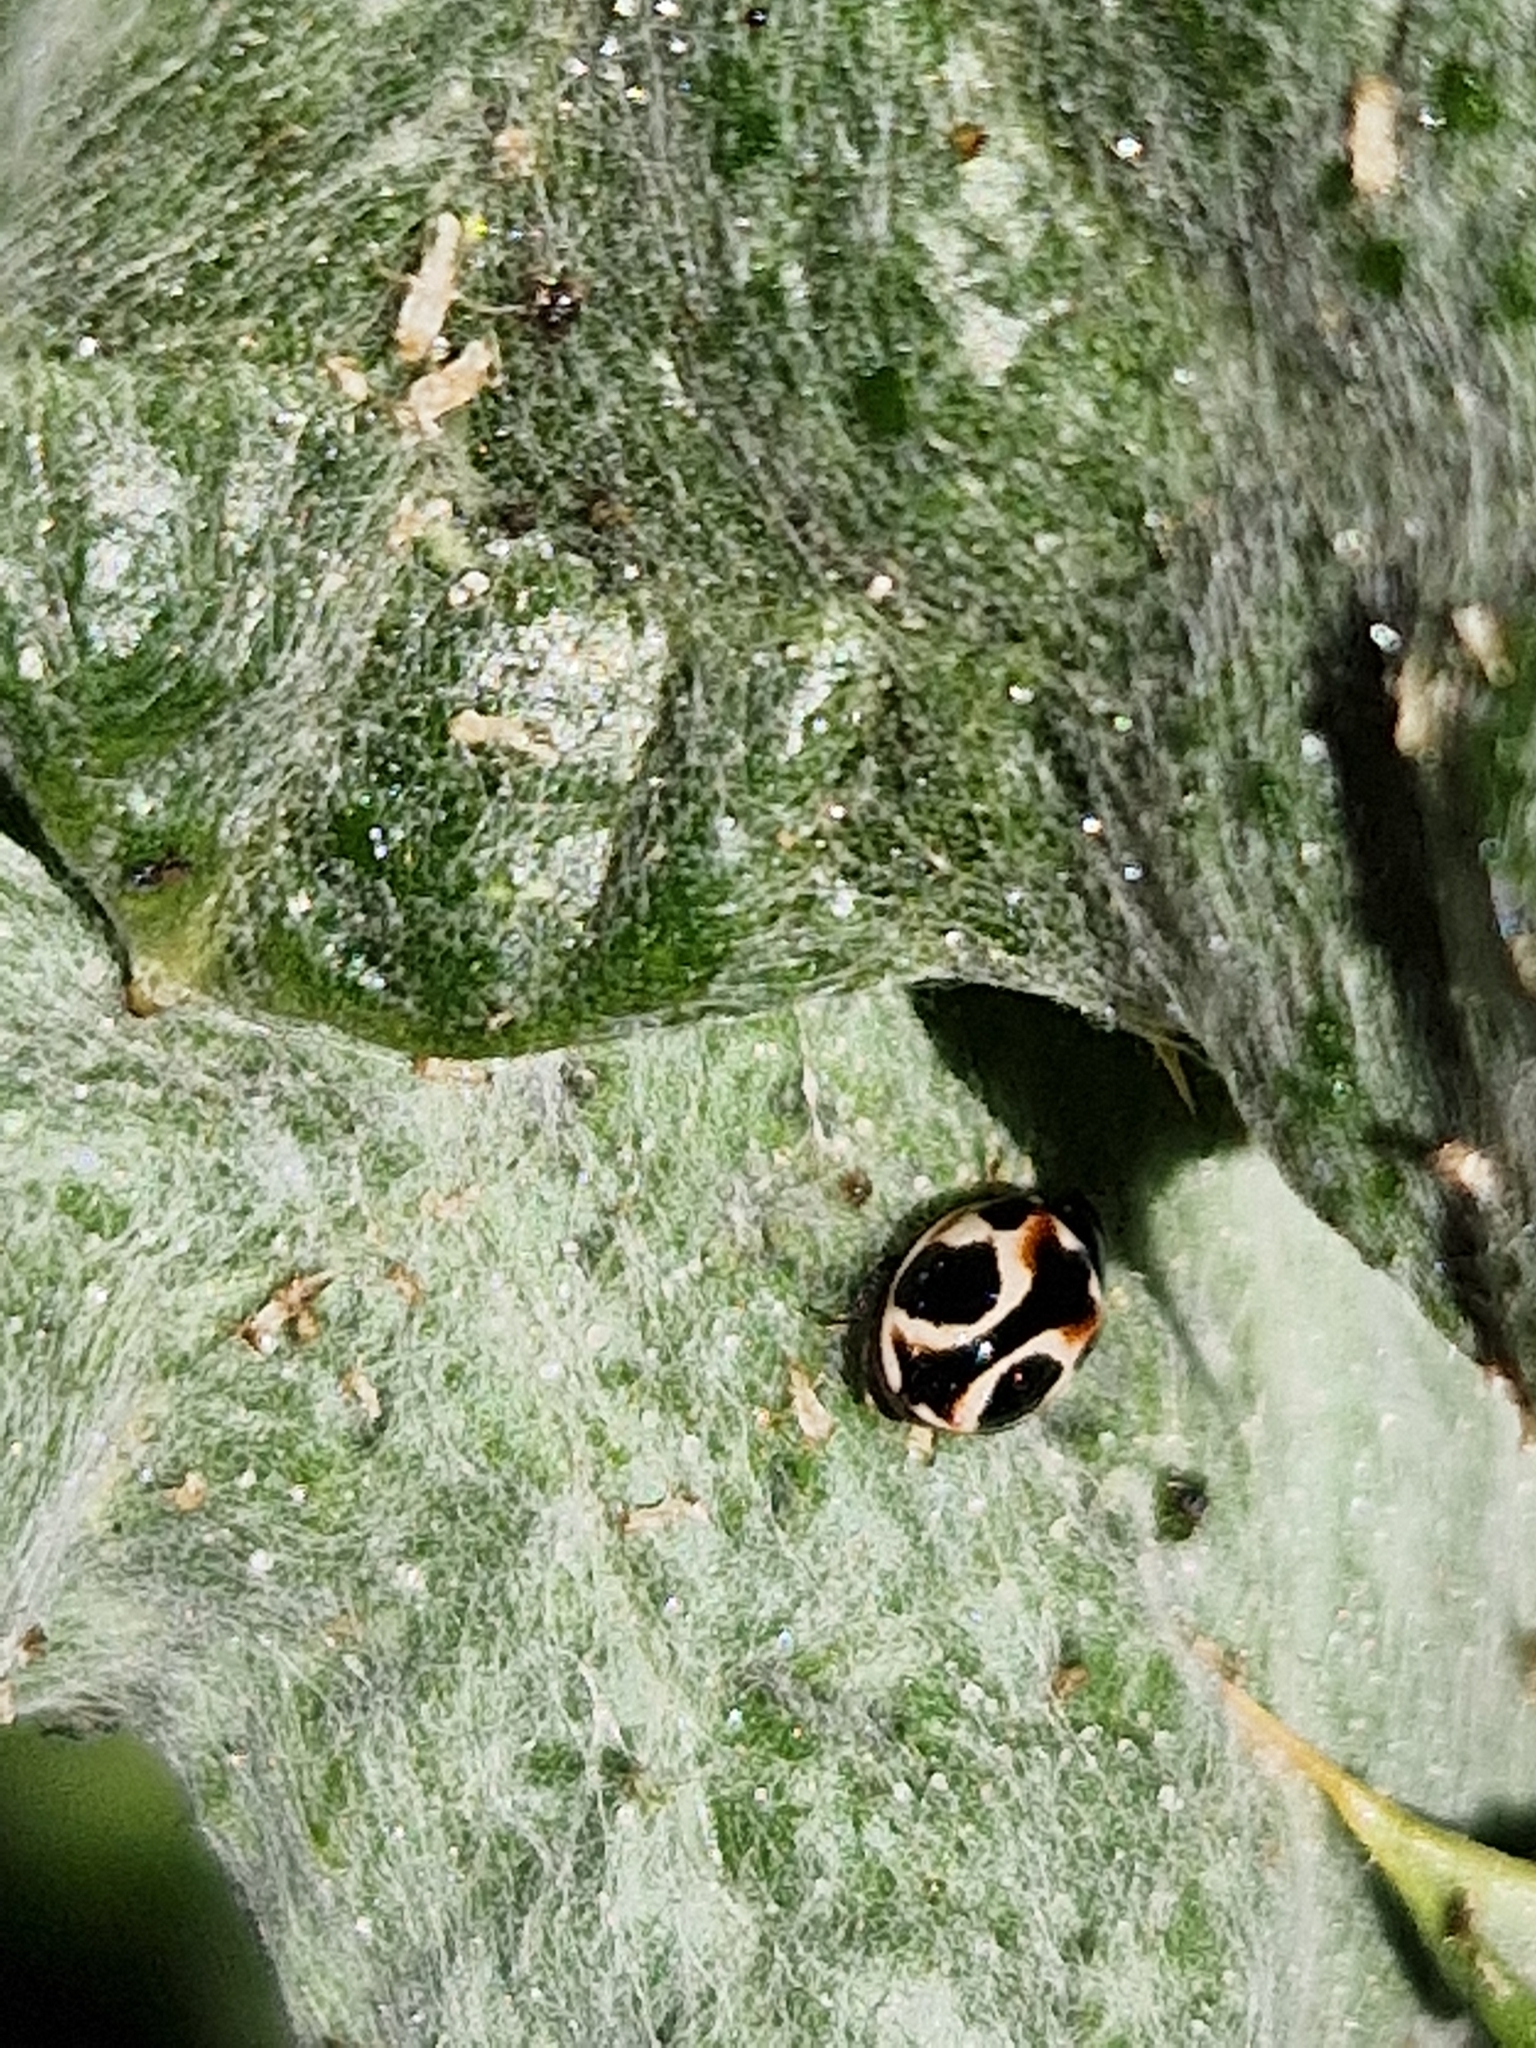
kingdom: Animalia
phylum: Arthropoda
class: Insecta
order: Coleoptera
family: Coccinellidae
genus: Cycloneda
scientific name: Cycloneda ancoralis
